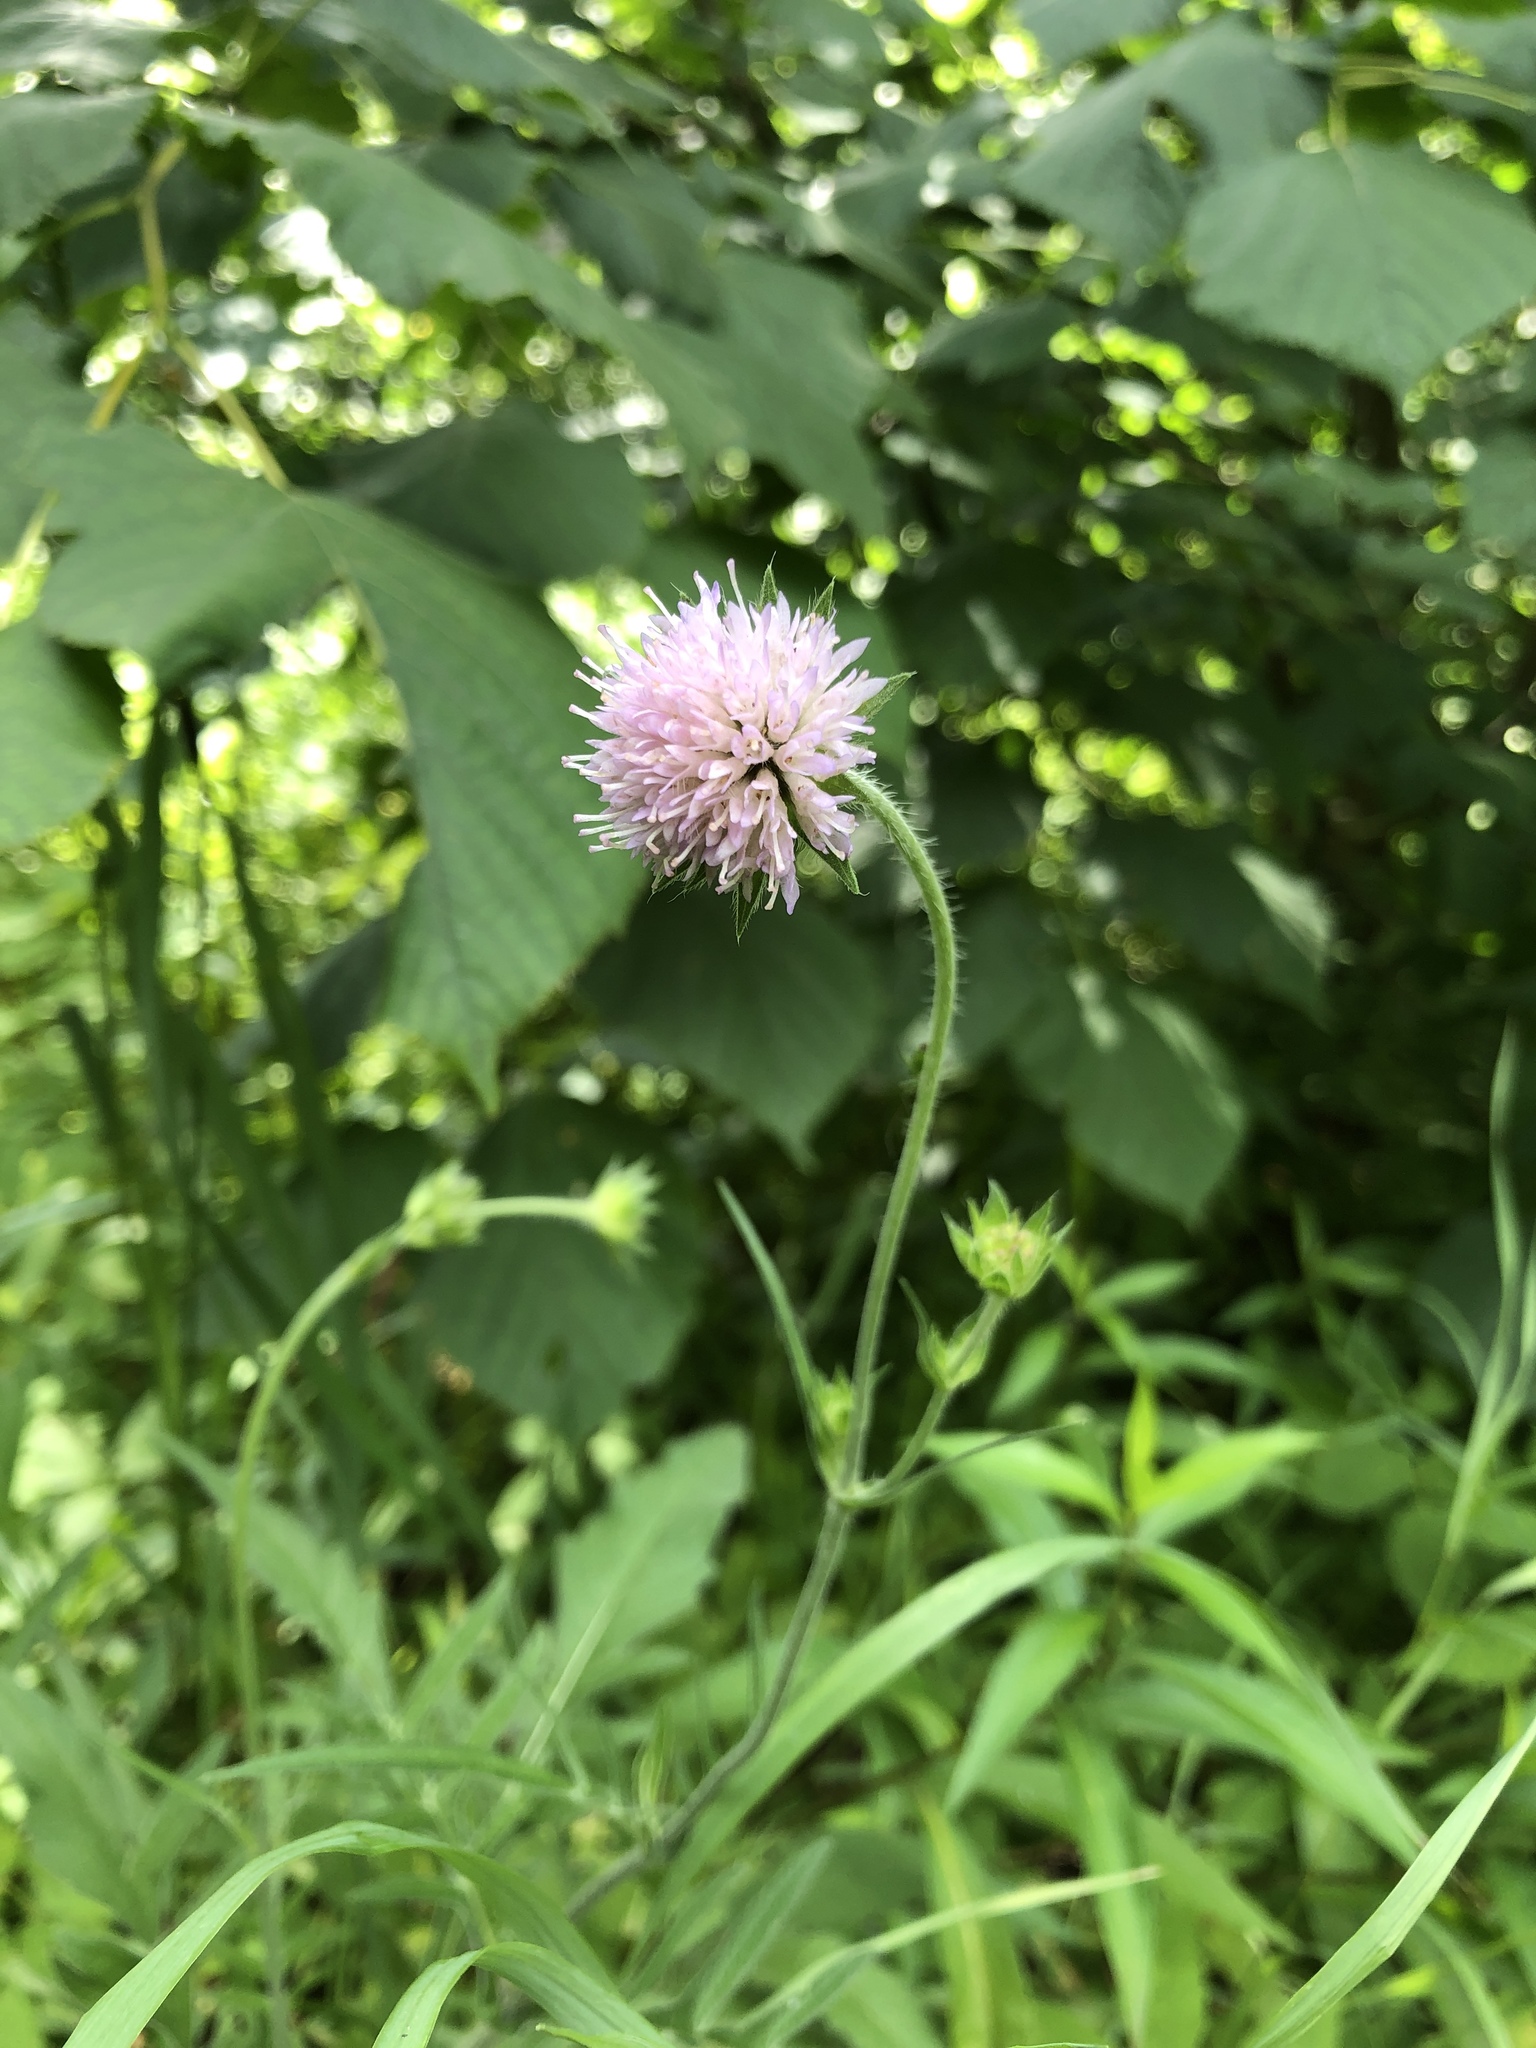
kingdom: Plantae
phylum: Tracheophyta
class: Magnoliopsida
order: Dipsacales
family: Caprifoliaceae
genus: Knautia
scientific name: Knautia arvensis
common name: Field scabiosa
